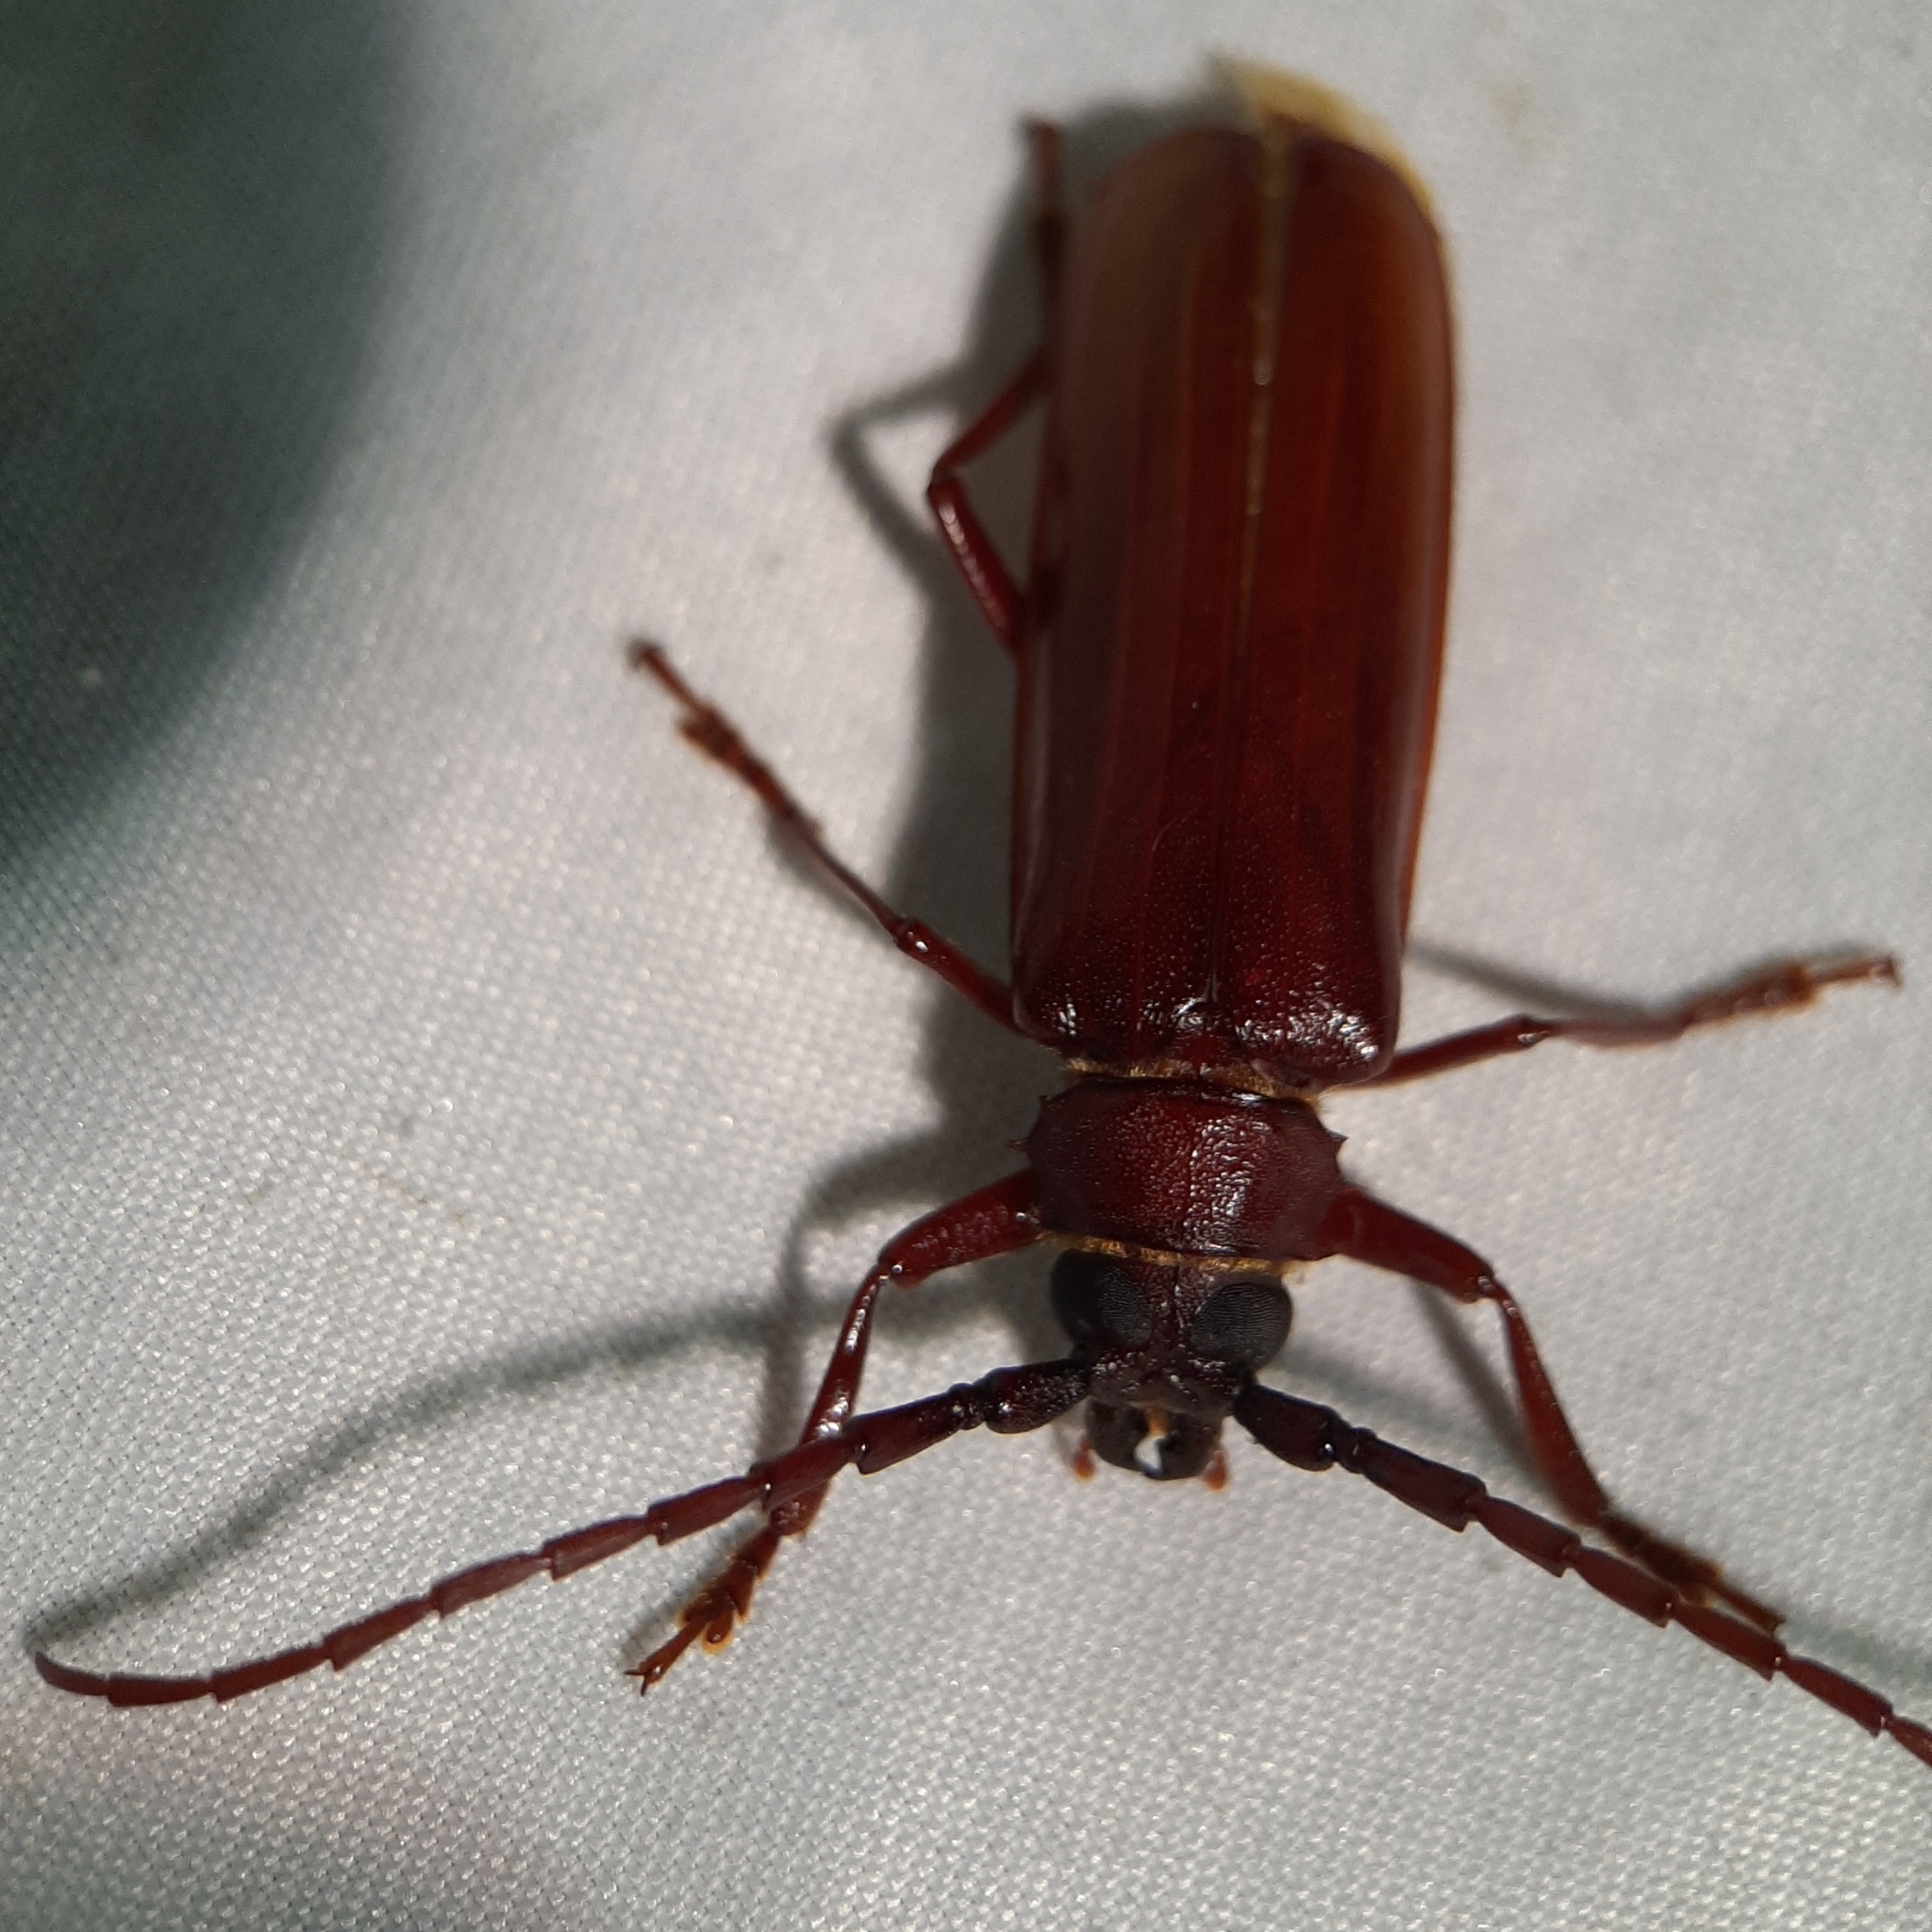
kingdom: Animalia
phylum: Arthropoda
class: Insecta
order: Coleoptera
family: Cerambycidae
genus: Orthosoma
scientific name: Orthosoma brunneum
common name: Brown prionid beetle
